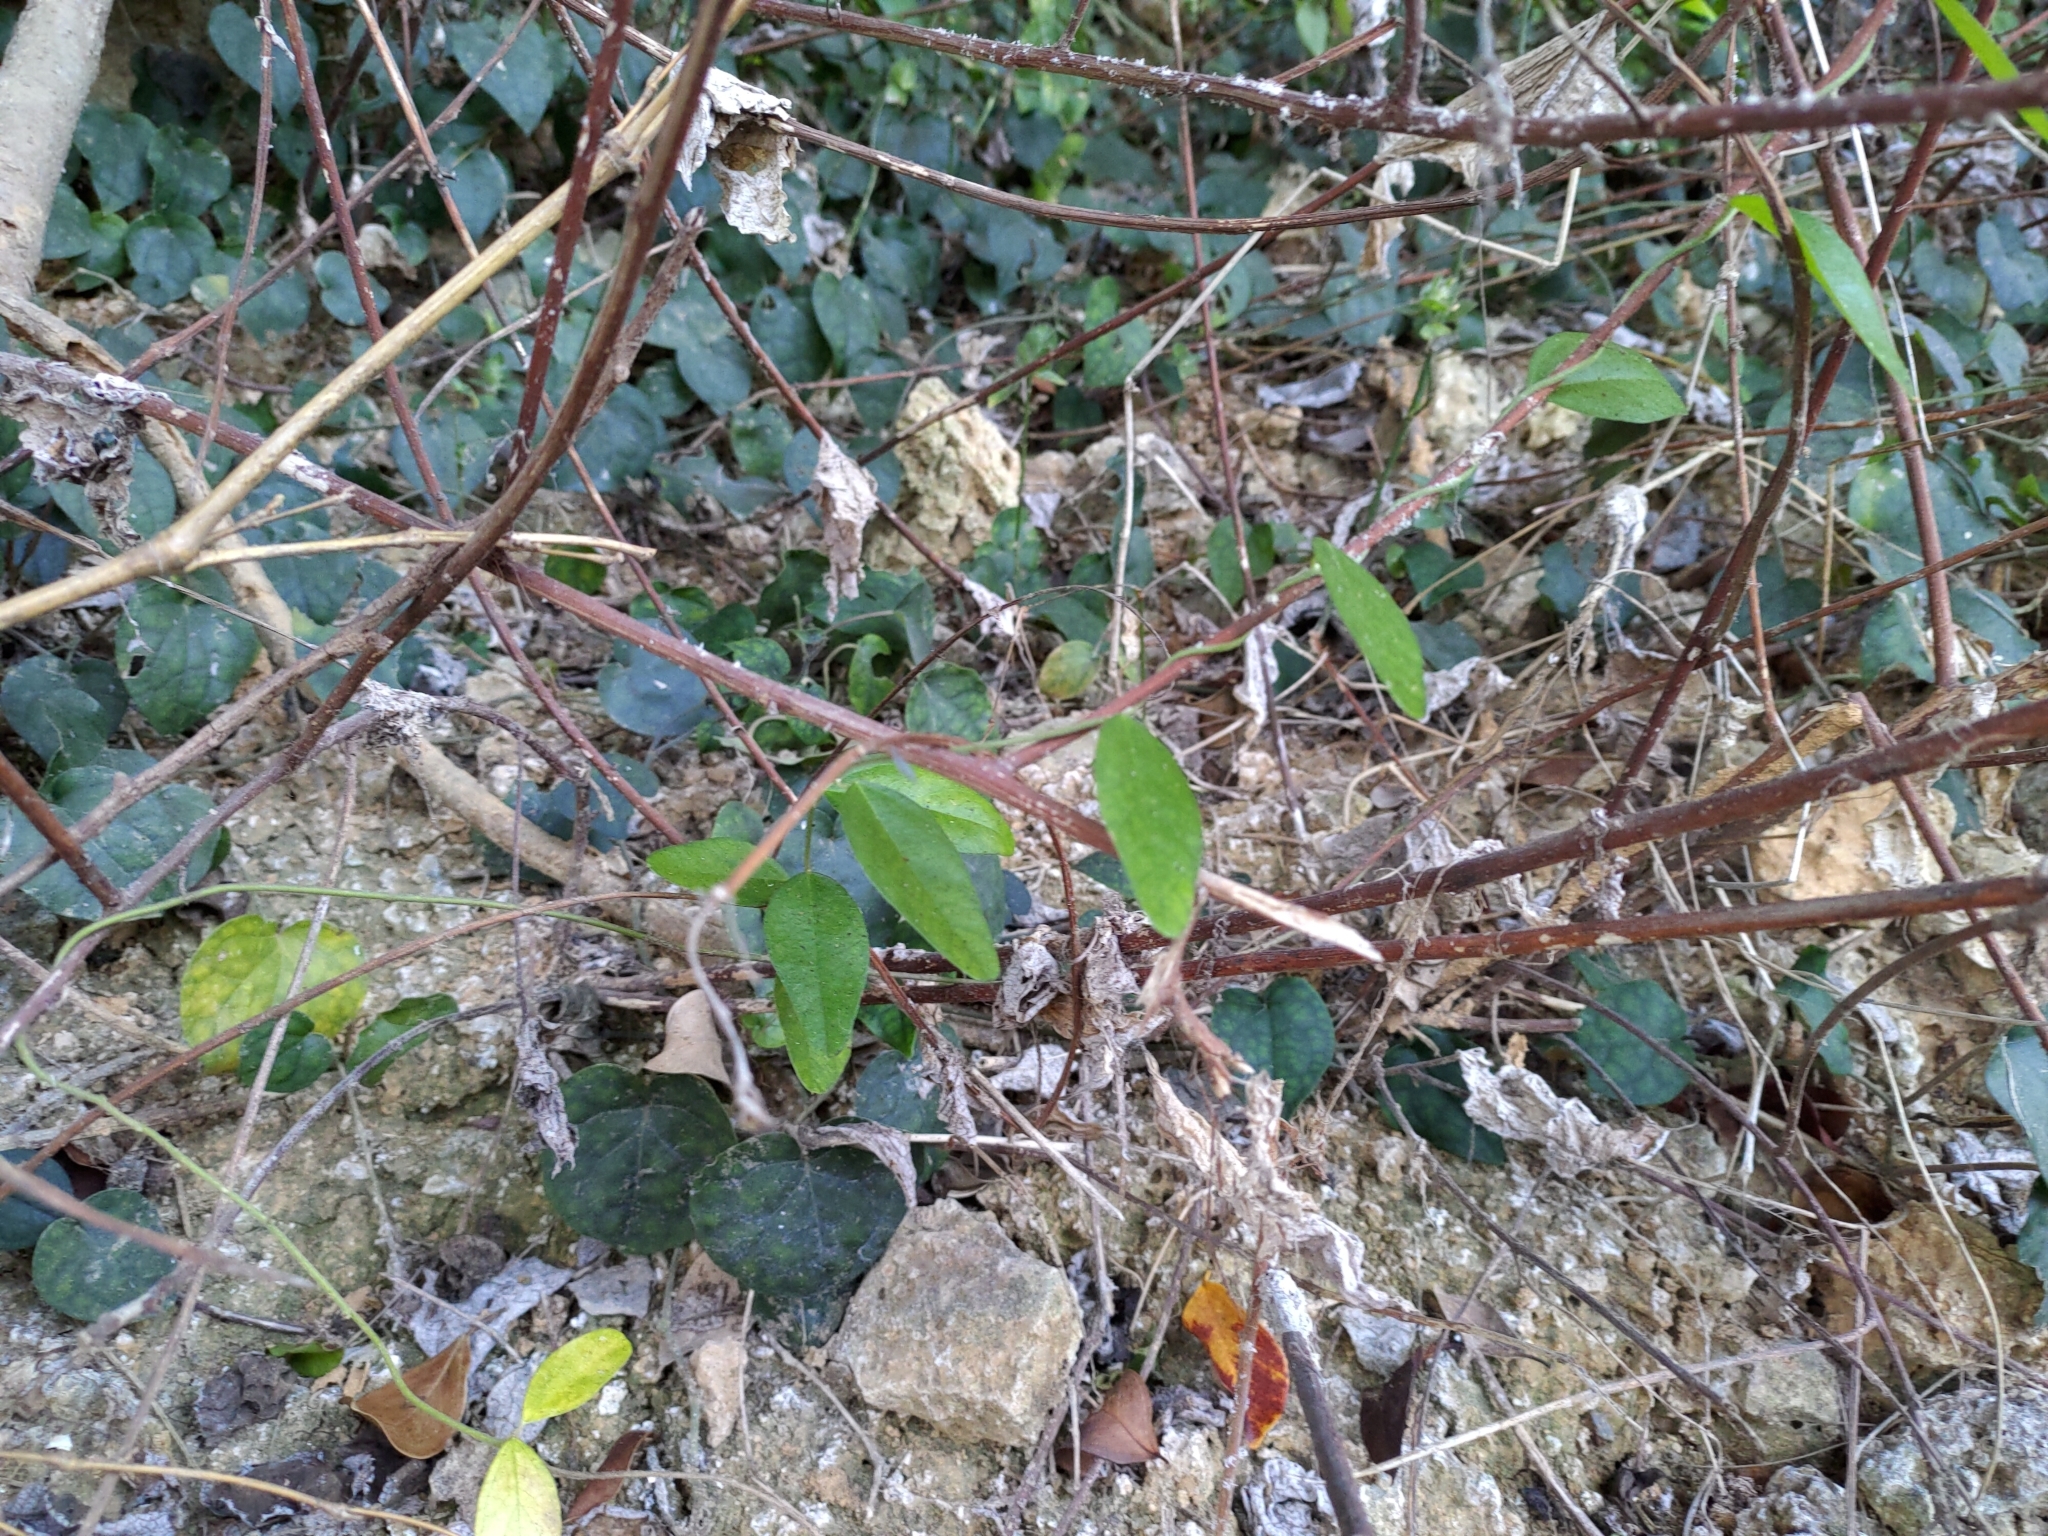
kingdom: Plantae
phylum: Tracheophyta
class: Magnoliopsida
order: Ranunculales
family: Menispermaceae
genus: Cocculus
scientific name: Cocculus orbiculatus
